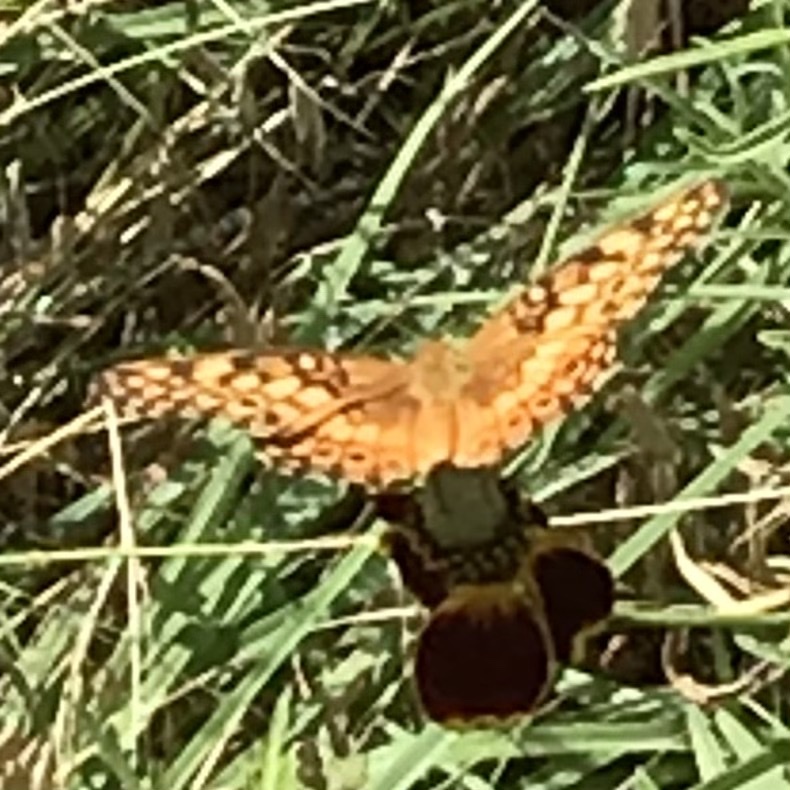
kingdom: Animalia
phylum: Arthropoda
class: Insecta
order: Lepidoptera
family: Nymphalidae
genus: Euptoieta
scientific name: Euptoieta claudia
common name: Variegated fritillary
